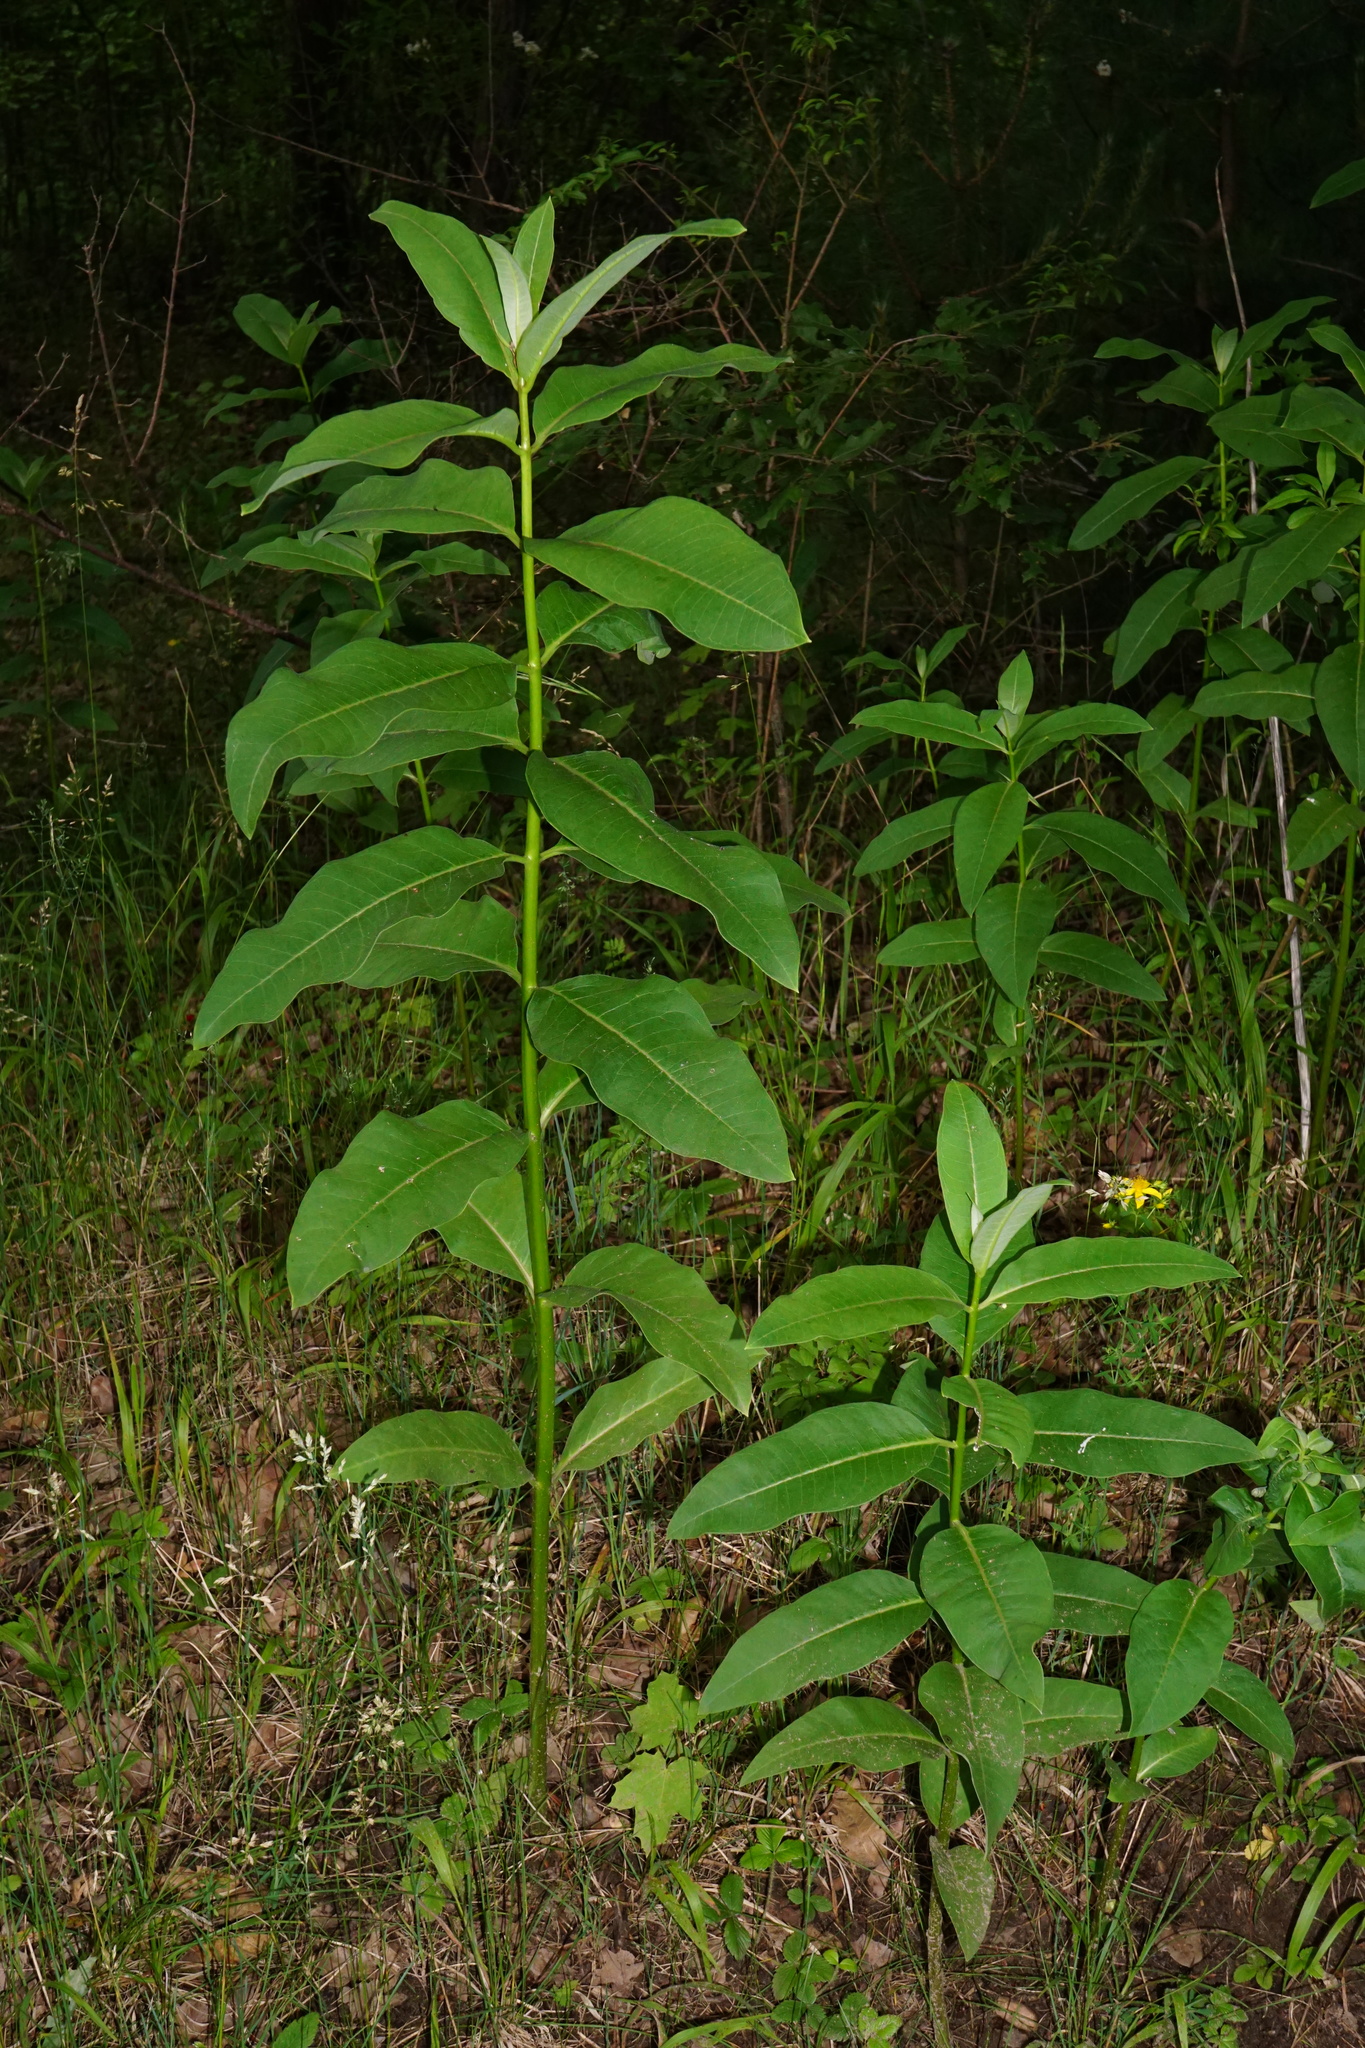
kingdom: Plantae
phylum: Tracheophyta
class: Magnoliopsida
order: Gentianales
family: Apocynaceae
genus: Asclepias
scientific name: Asclepias syriaca
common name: Common milkweed
